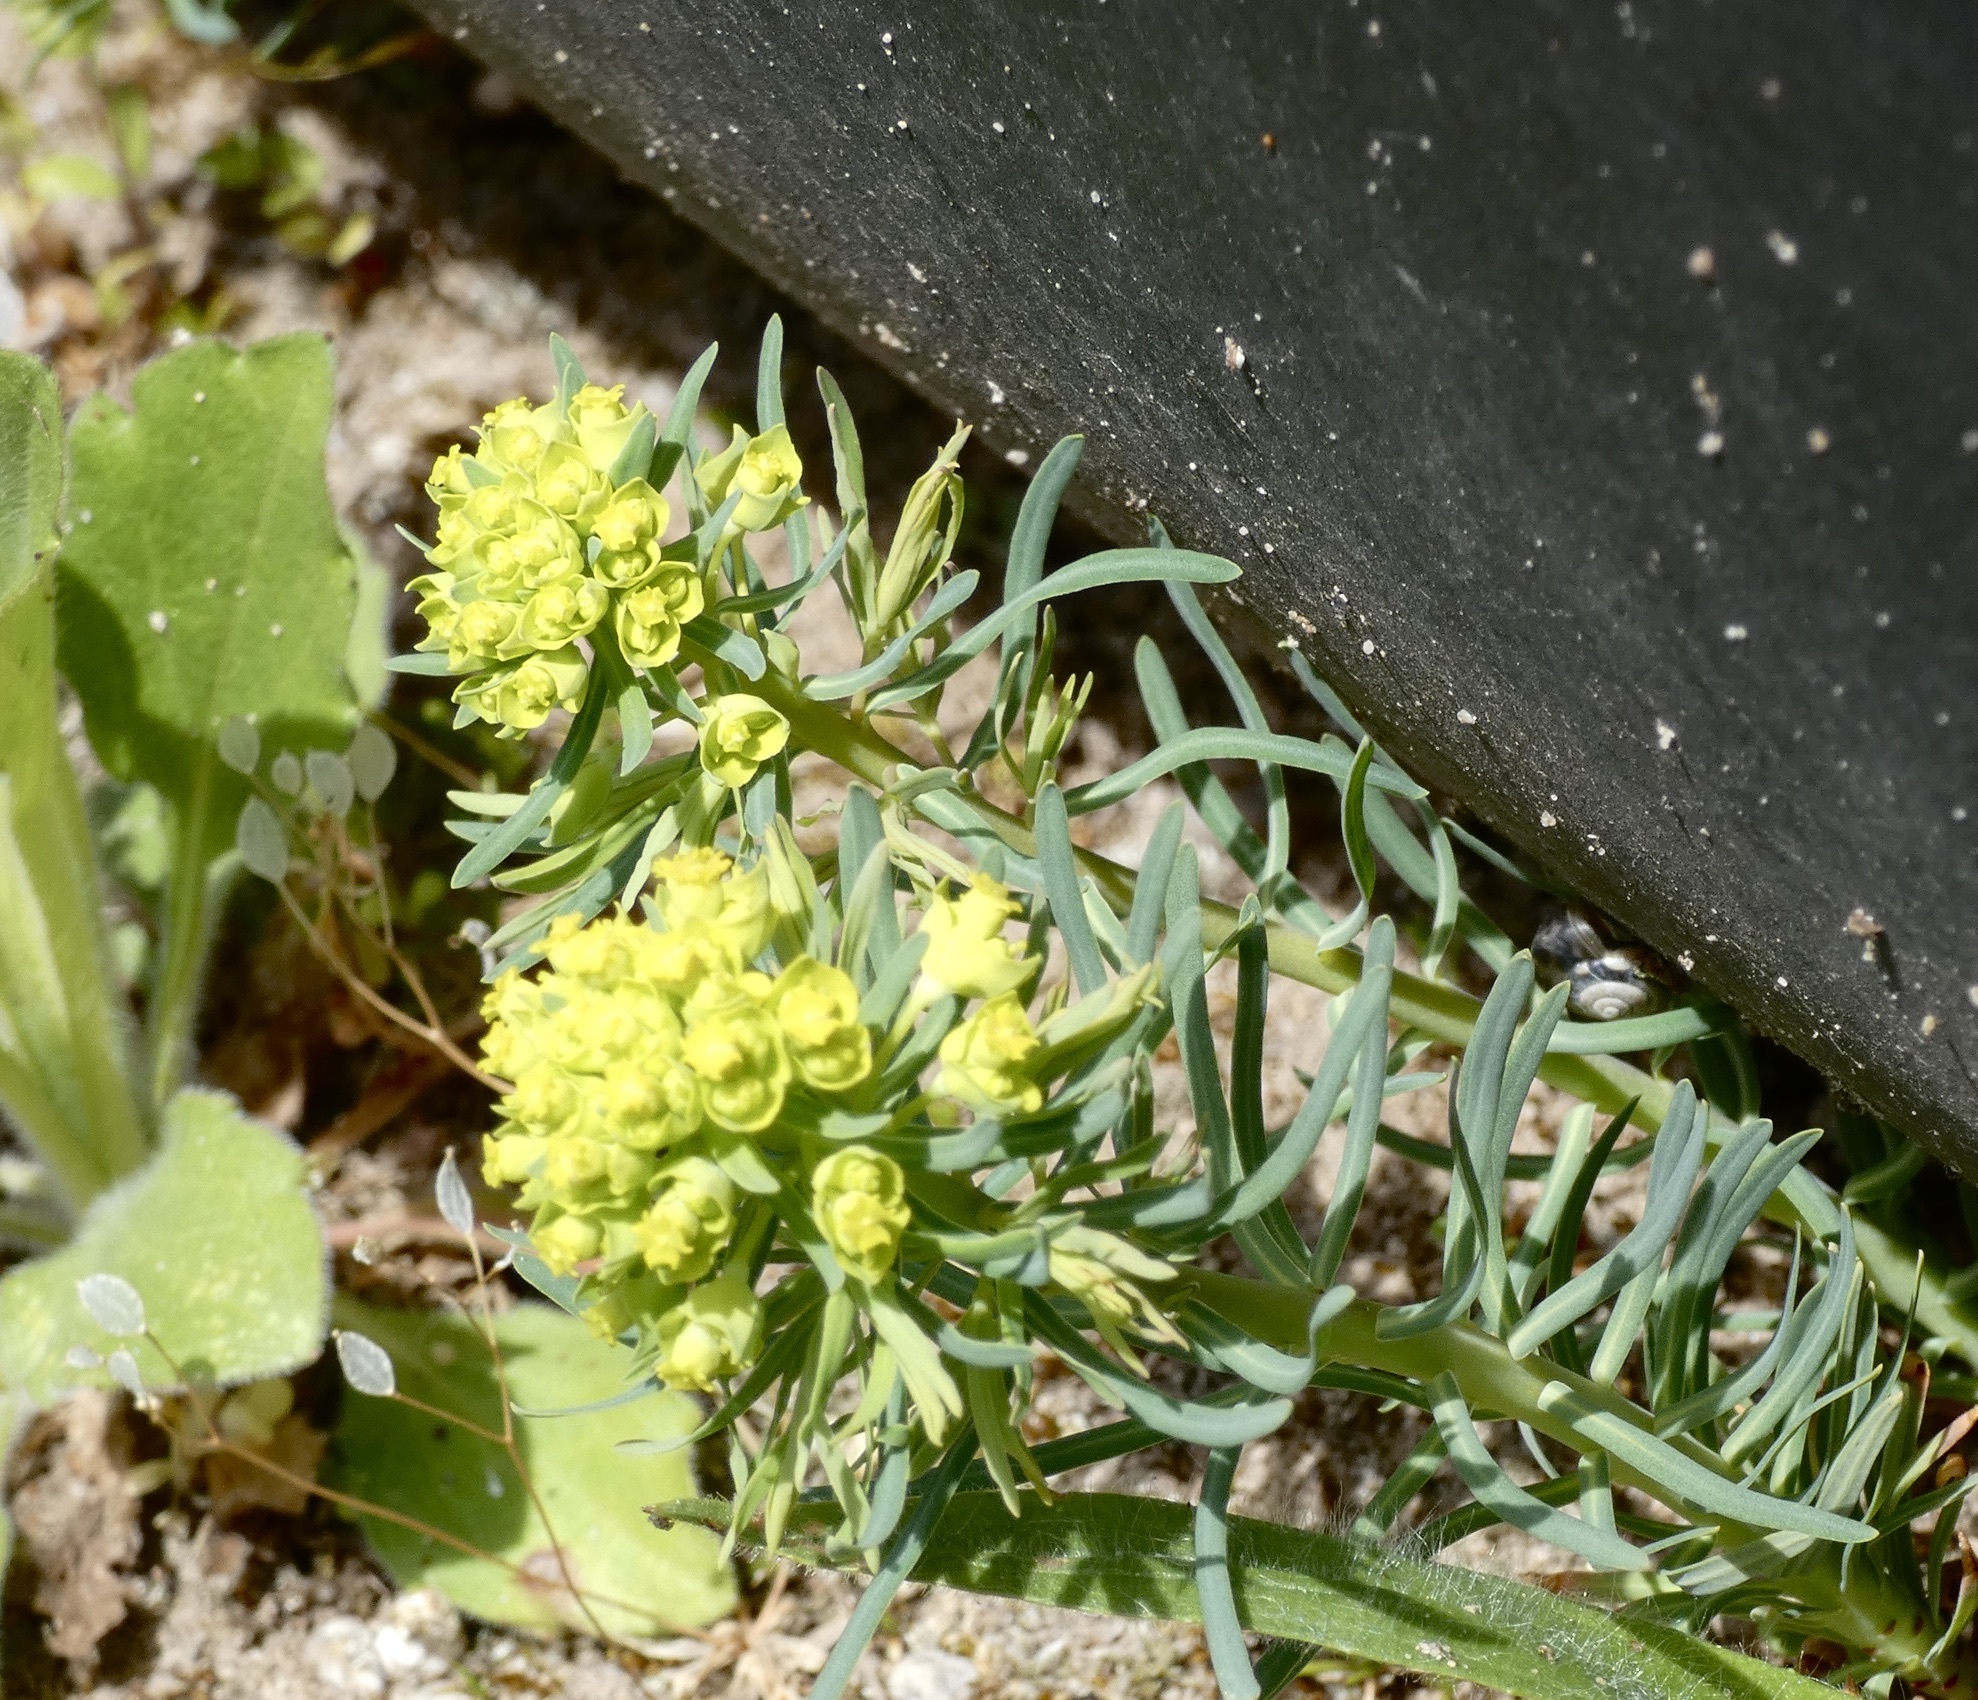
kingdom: Plantae
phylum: Tracheophyta
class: Magnoliopsida
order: Malpighiales
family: Euphorbiaceae
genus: Euphorbia
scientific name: Euphorbia cyparissias
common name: Cypress spurge
